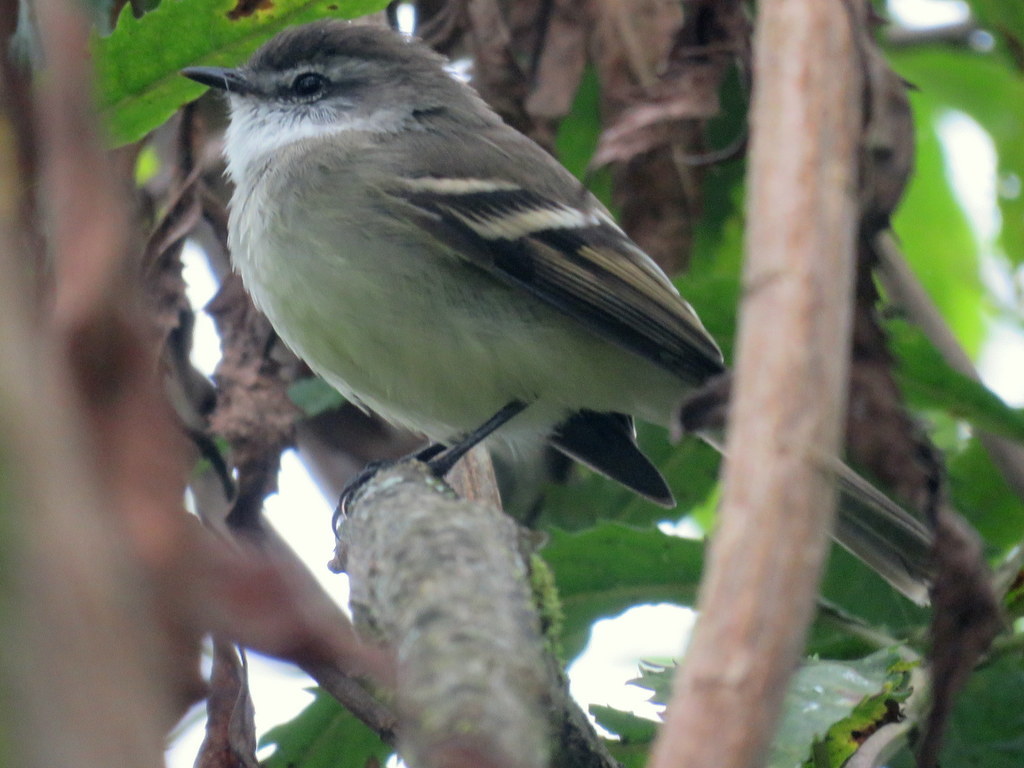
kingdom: Animalia
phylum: Chordata
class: Aves
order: Passeriformes
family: Tyrannidae
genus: Mecocerculus
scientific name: Mecocerculus leucophrys
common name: White-throated tyrannulet
